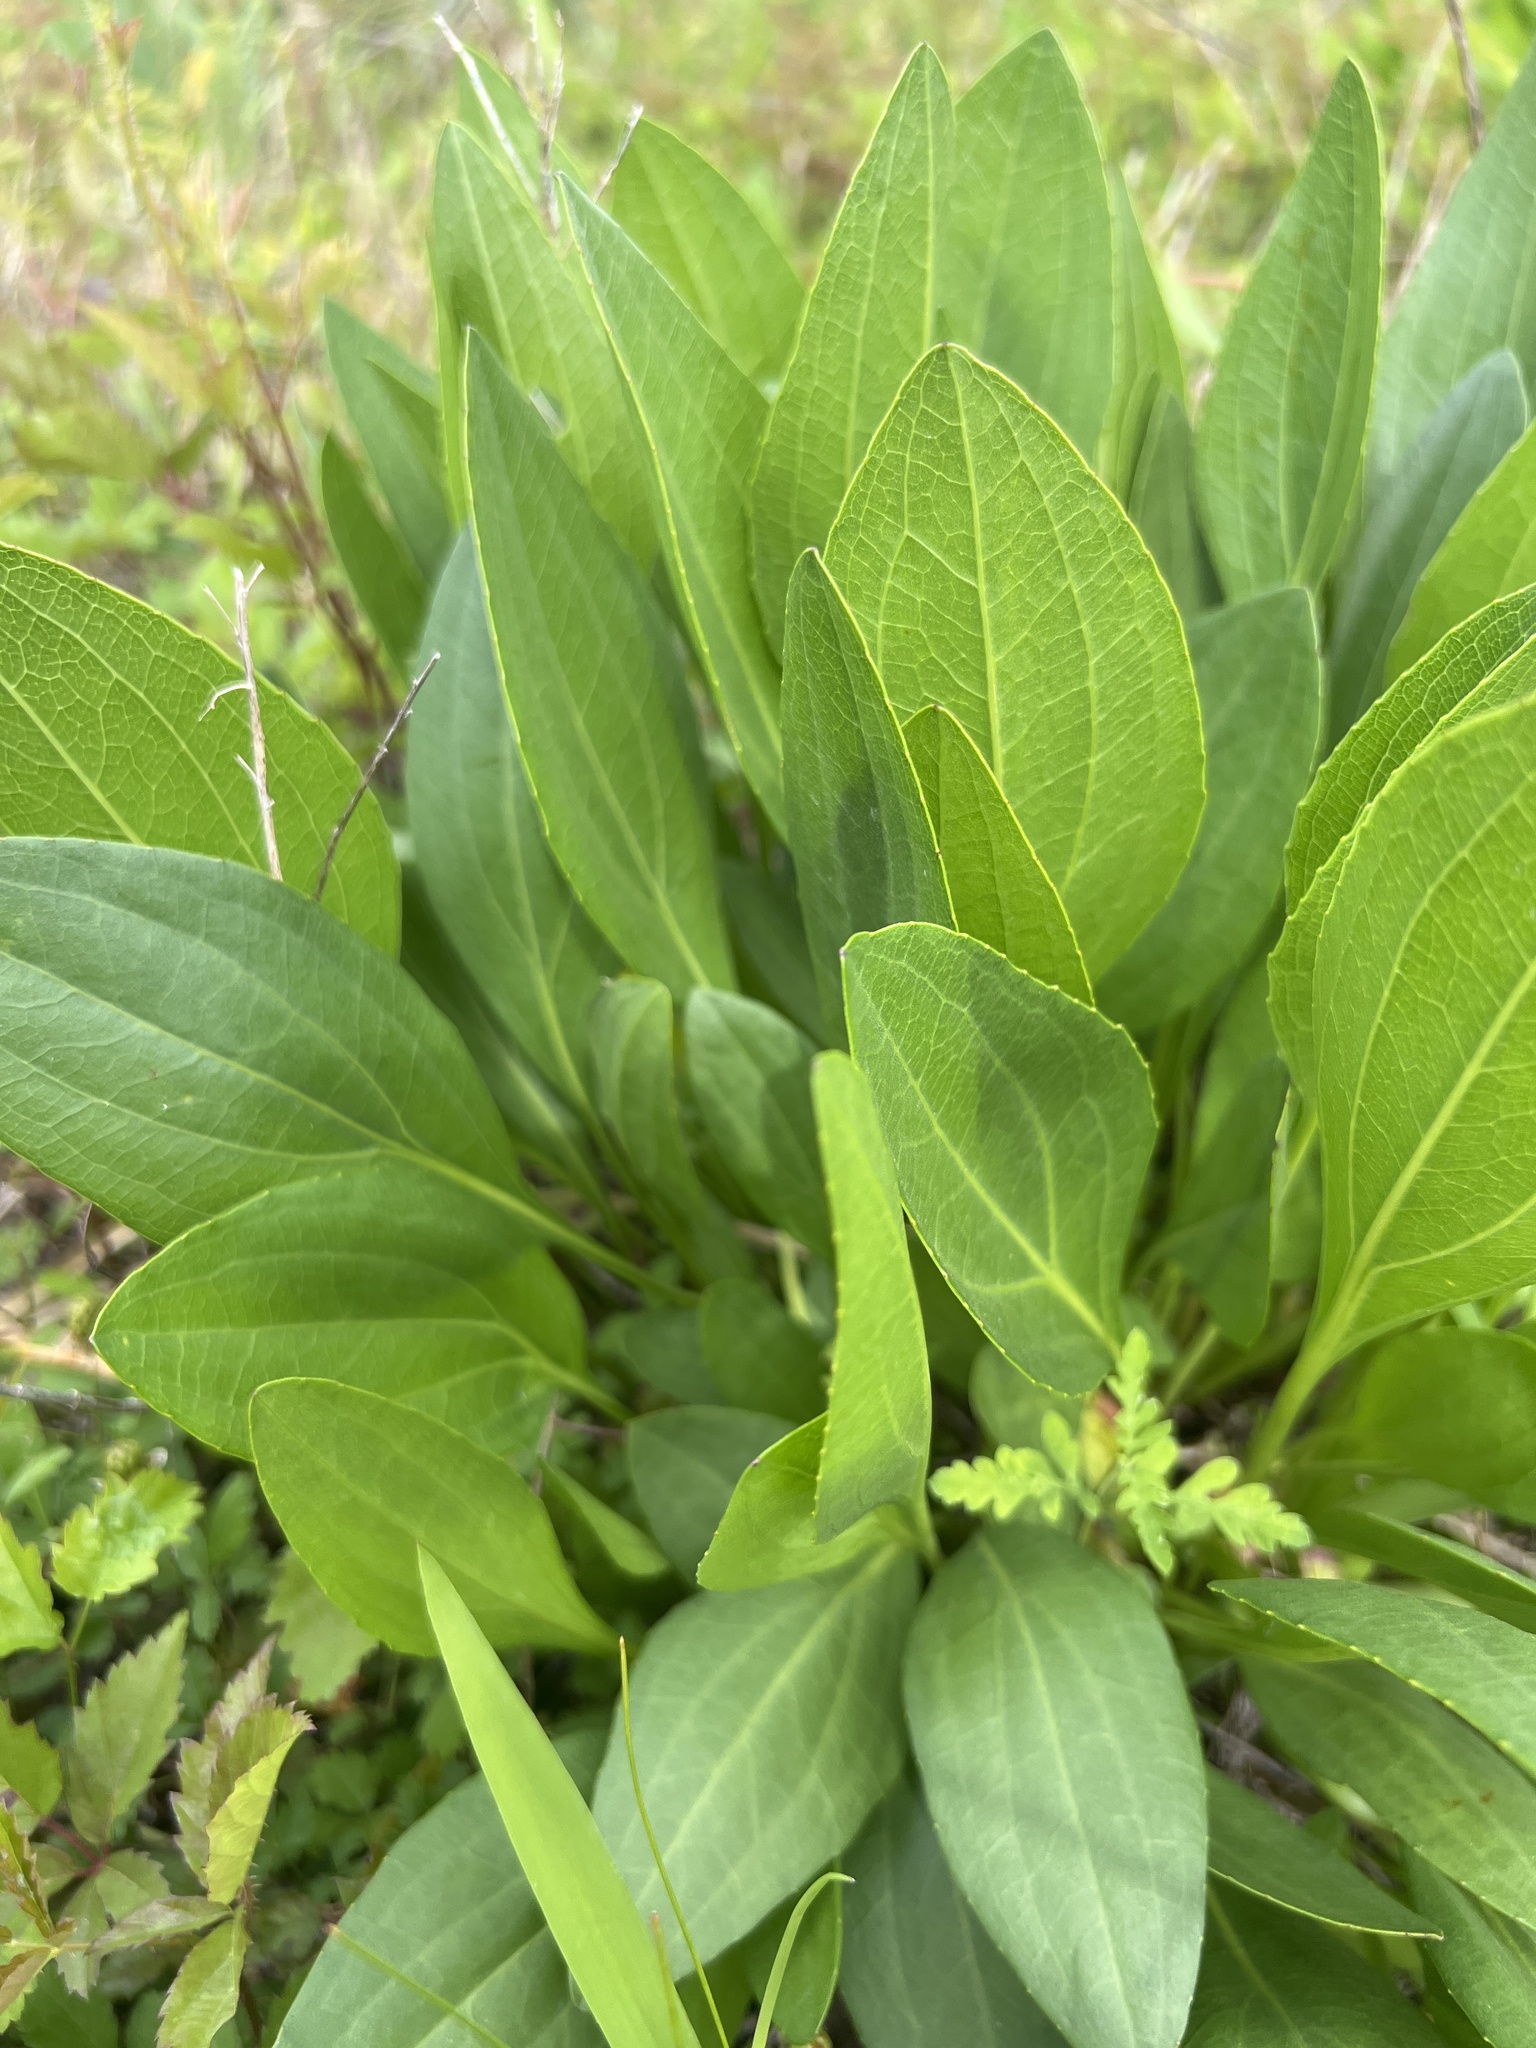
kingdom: Plantae
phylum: Tracheophyta
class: Magnoliopsida
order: Asterales
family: Asteraceae
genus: Rudbeckia
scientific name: Rudbeckia texana
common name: Texas coneflower
